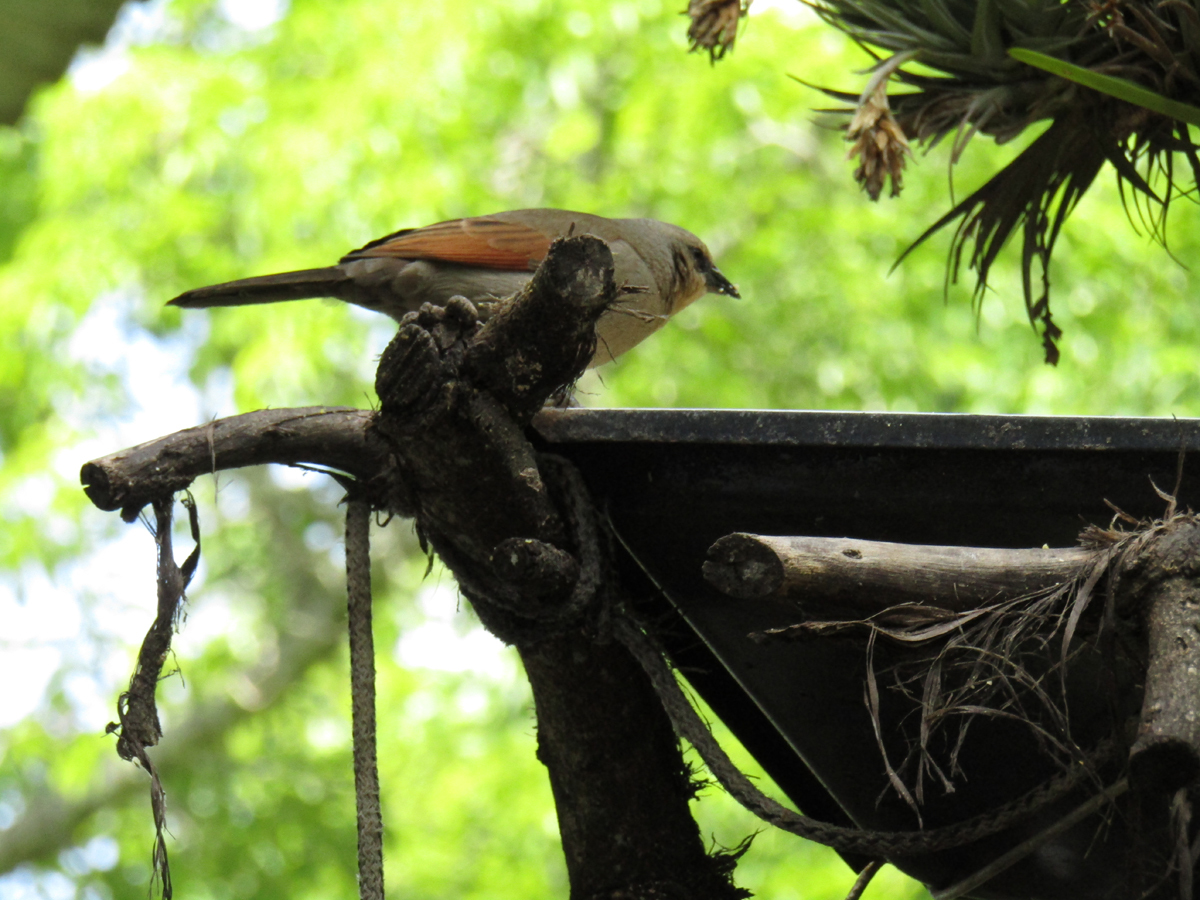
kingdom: Animalia
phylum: Chordata
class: Aves
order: Passeriformes
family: Icteridae
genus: Agelaioides
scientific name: Agelaioides badius
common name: Baywing
